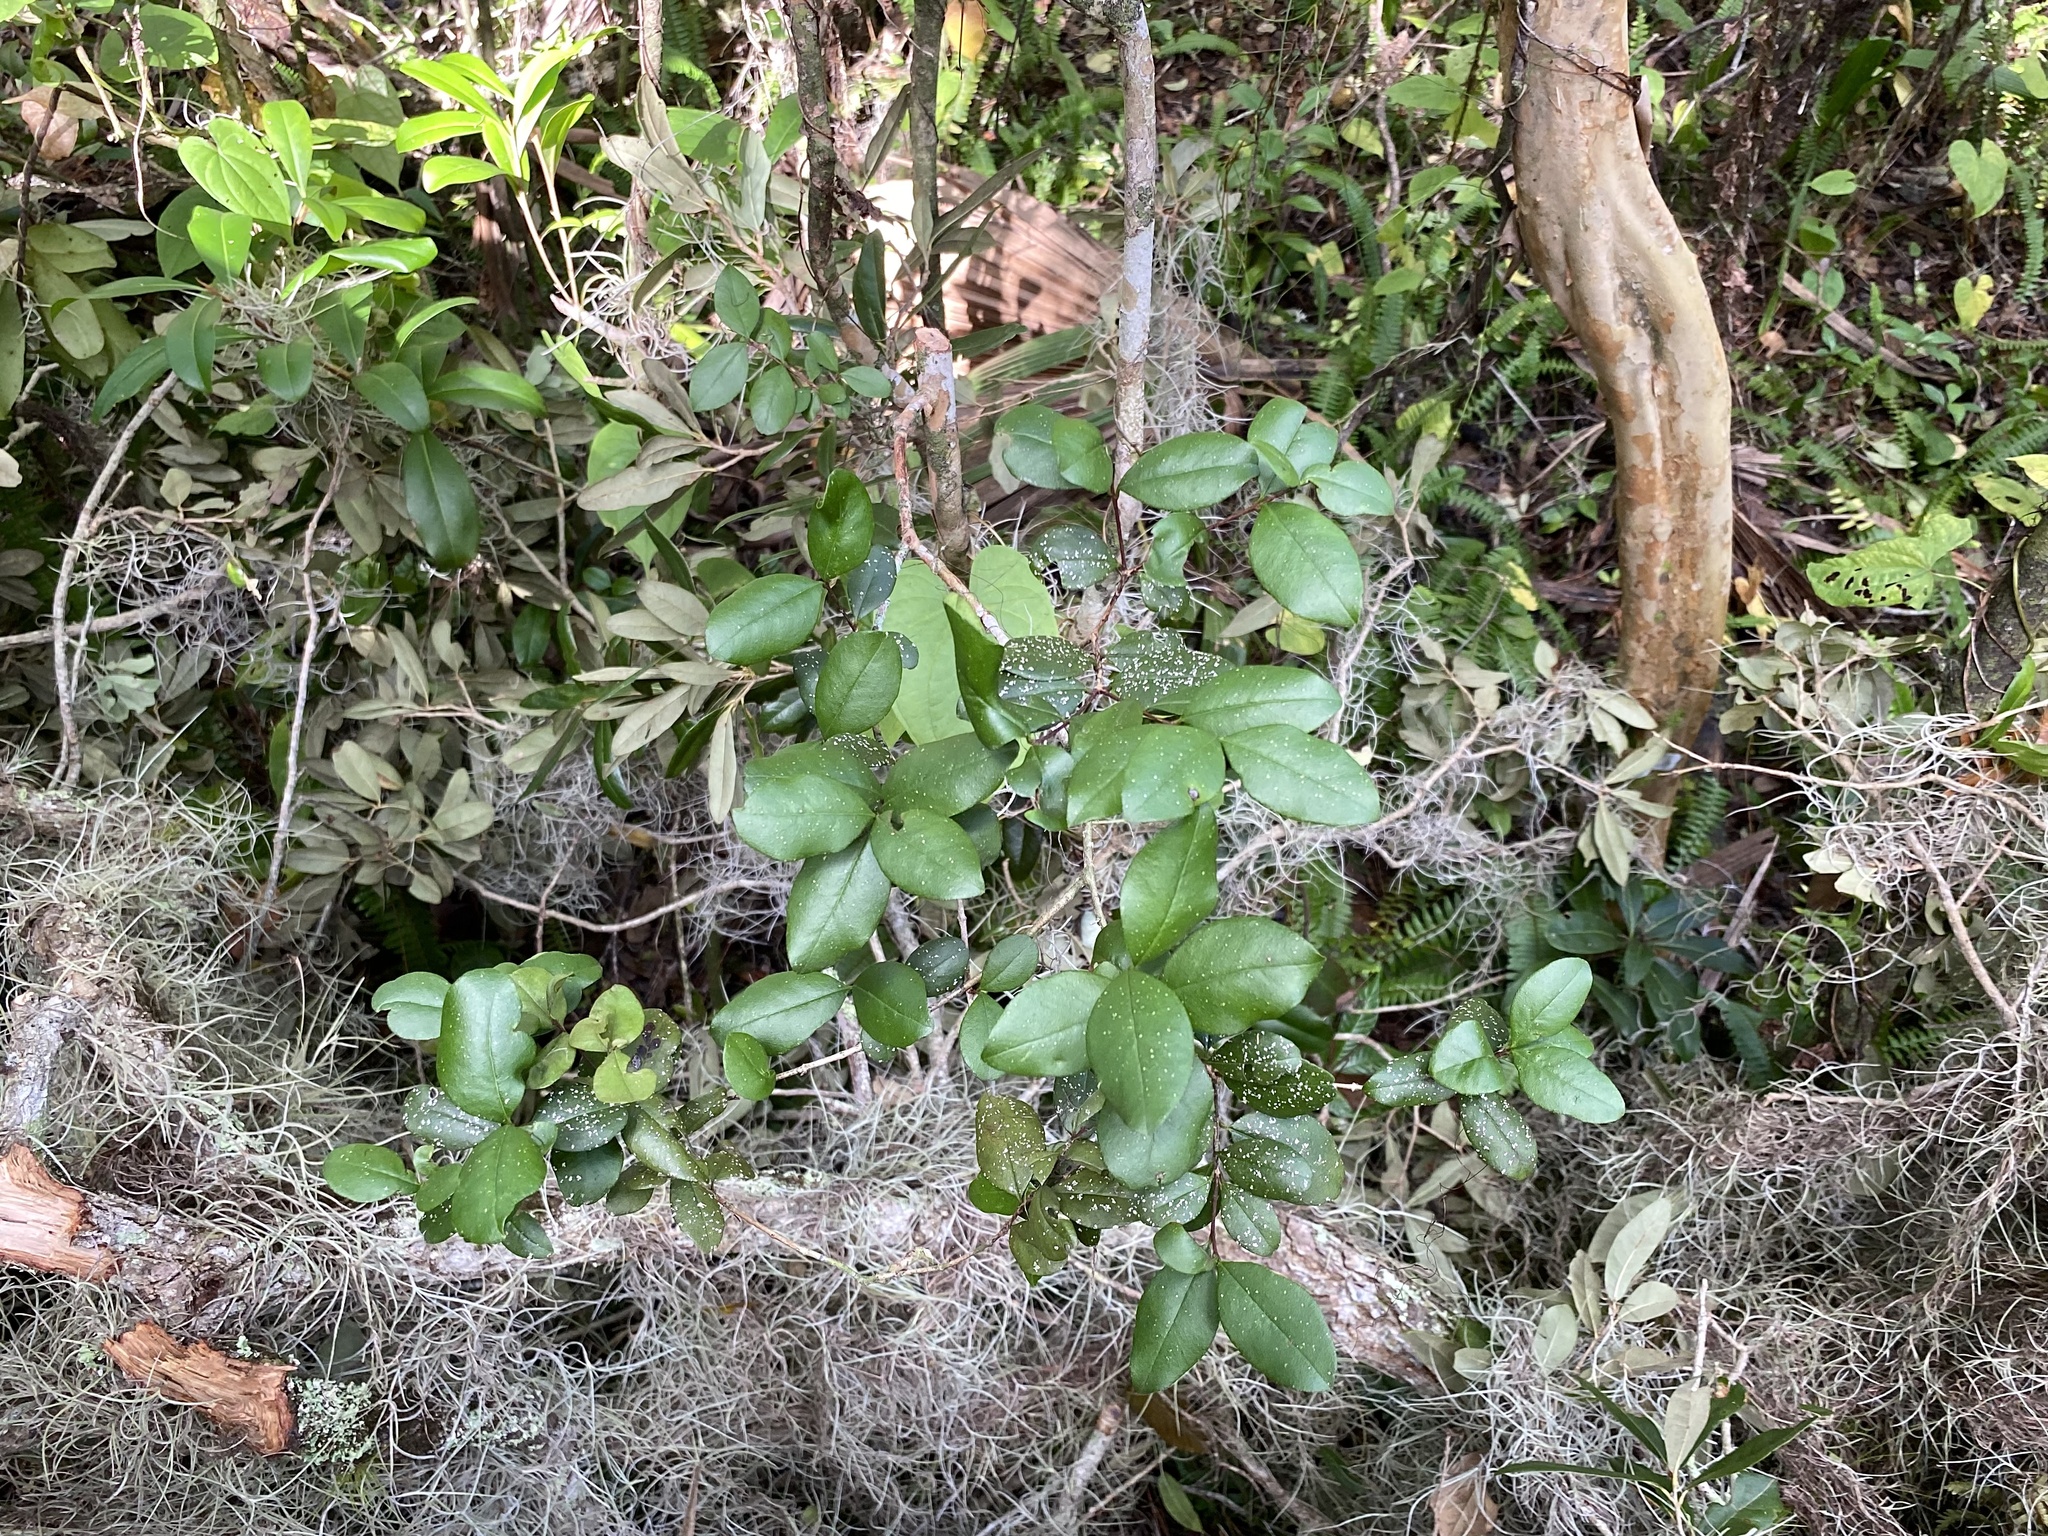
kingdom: Plantae
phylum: Tracheophyta
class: Magnoliopsida
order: Myrtales
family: Myrtaceae
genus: Myrcianthes
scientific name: Myrcianthes fragrans
